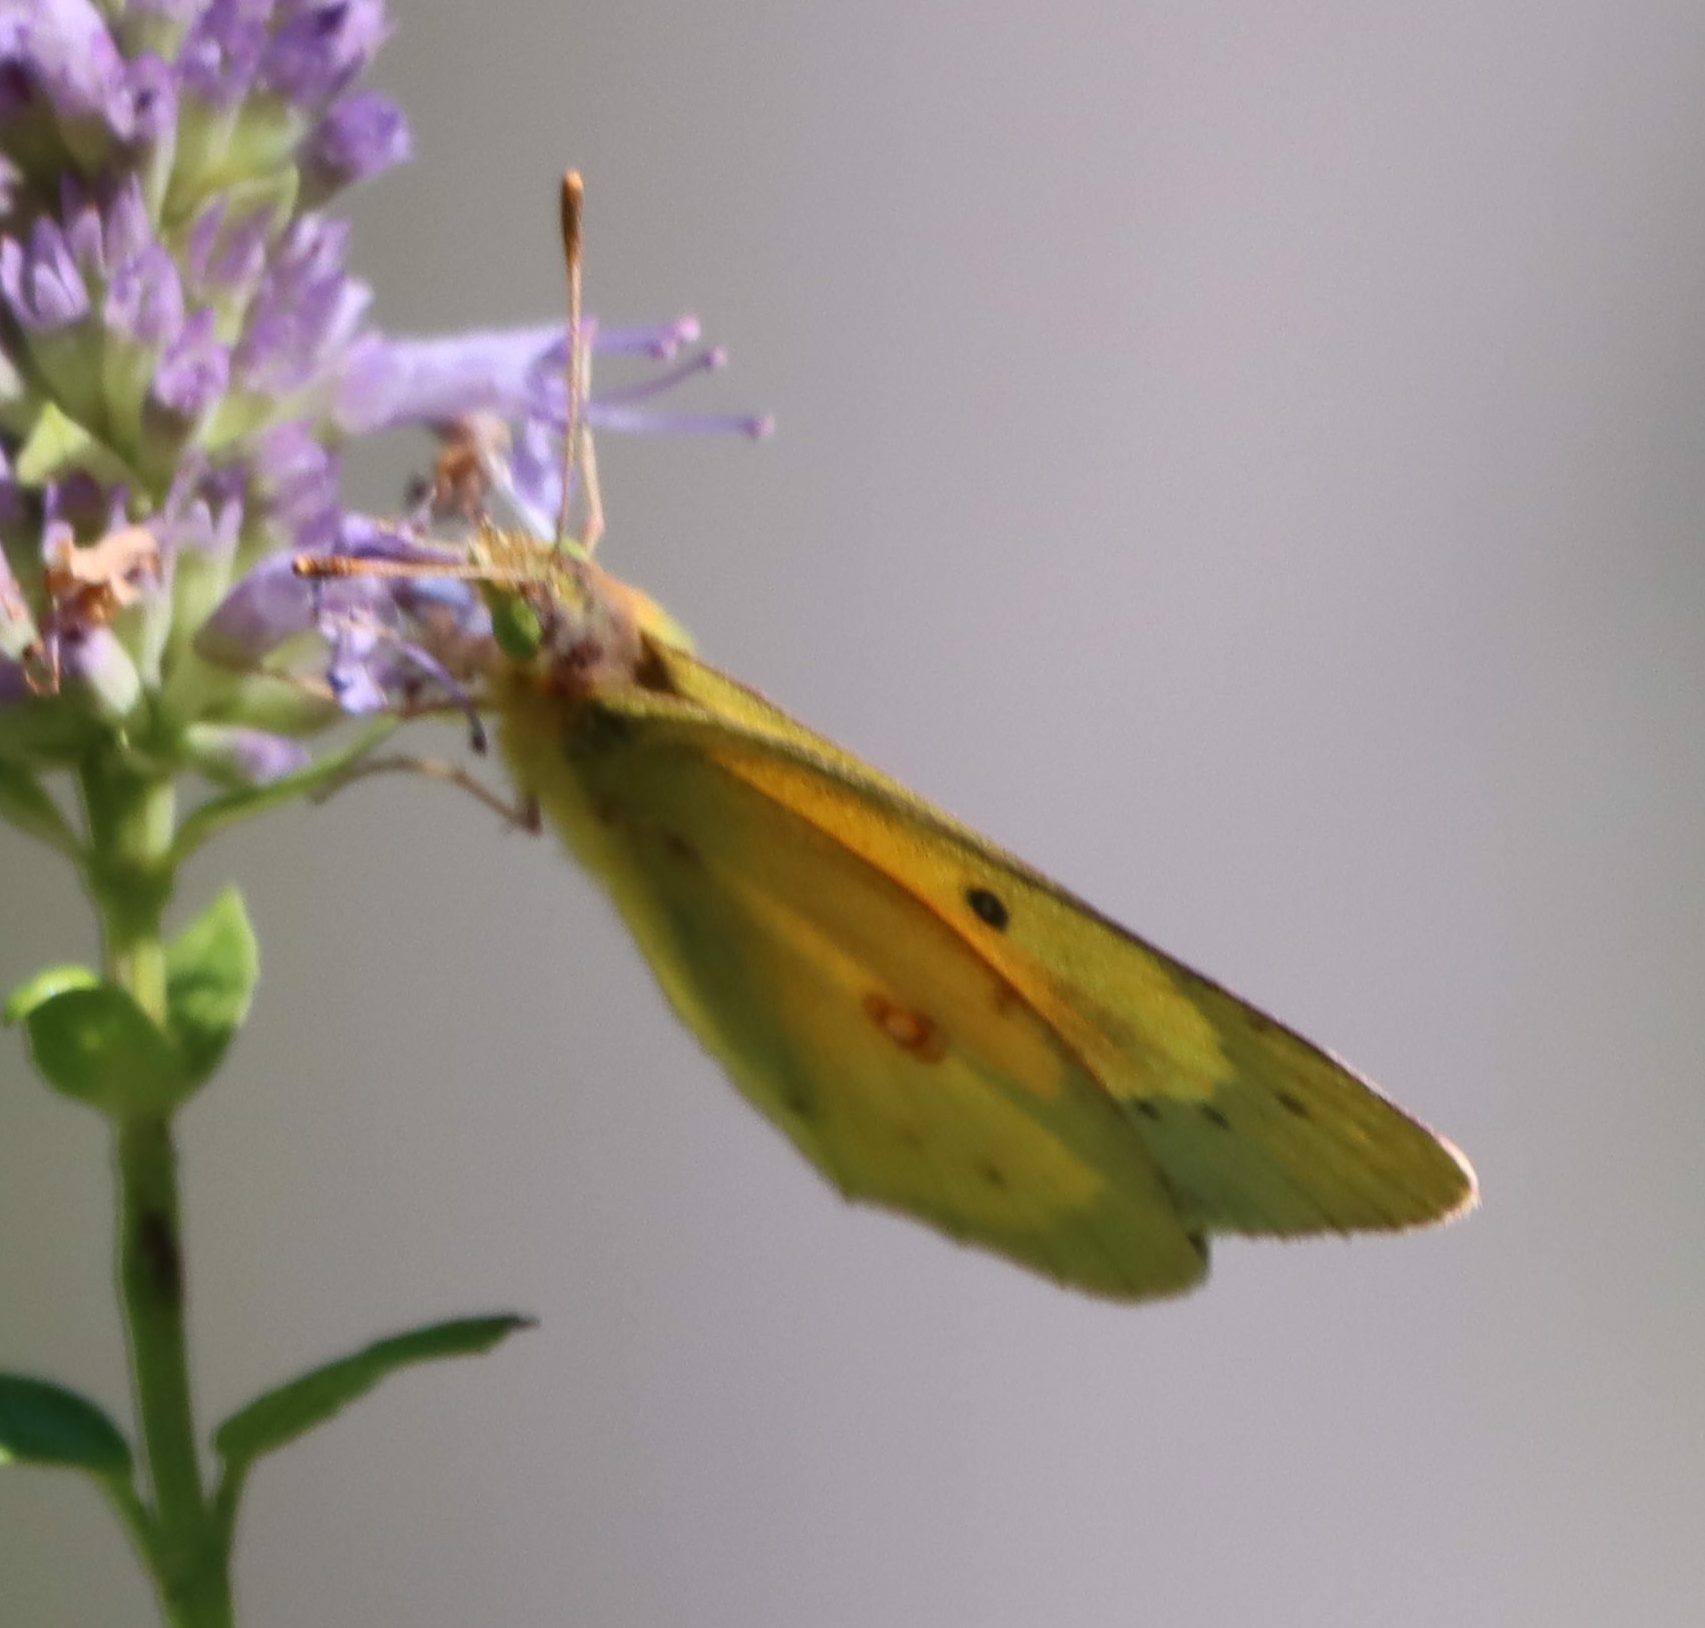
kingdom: Animalia
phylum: Arthropoda
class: Insecta
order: Lepidoptera
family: Pieridae
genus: Colias
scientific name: Colias eurytheme
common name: Alfalfa butterfly
